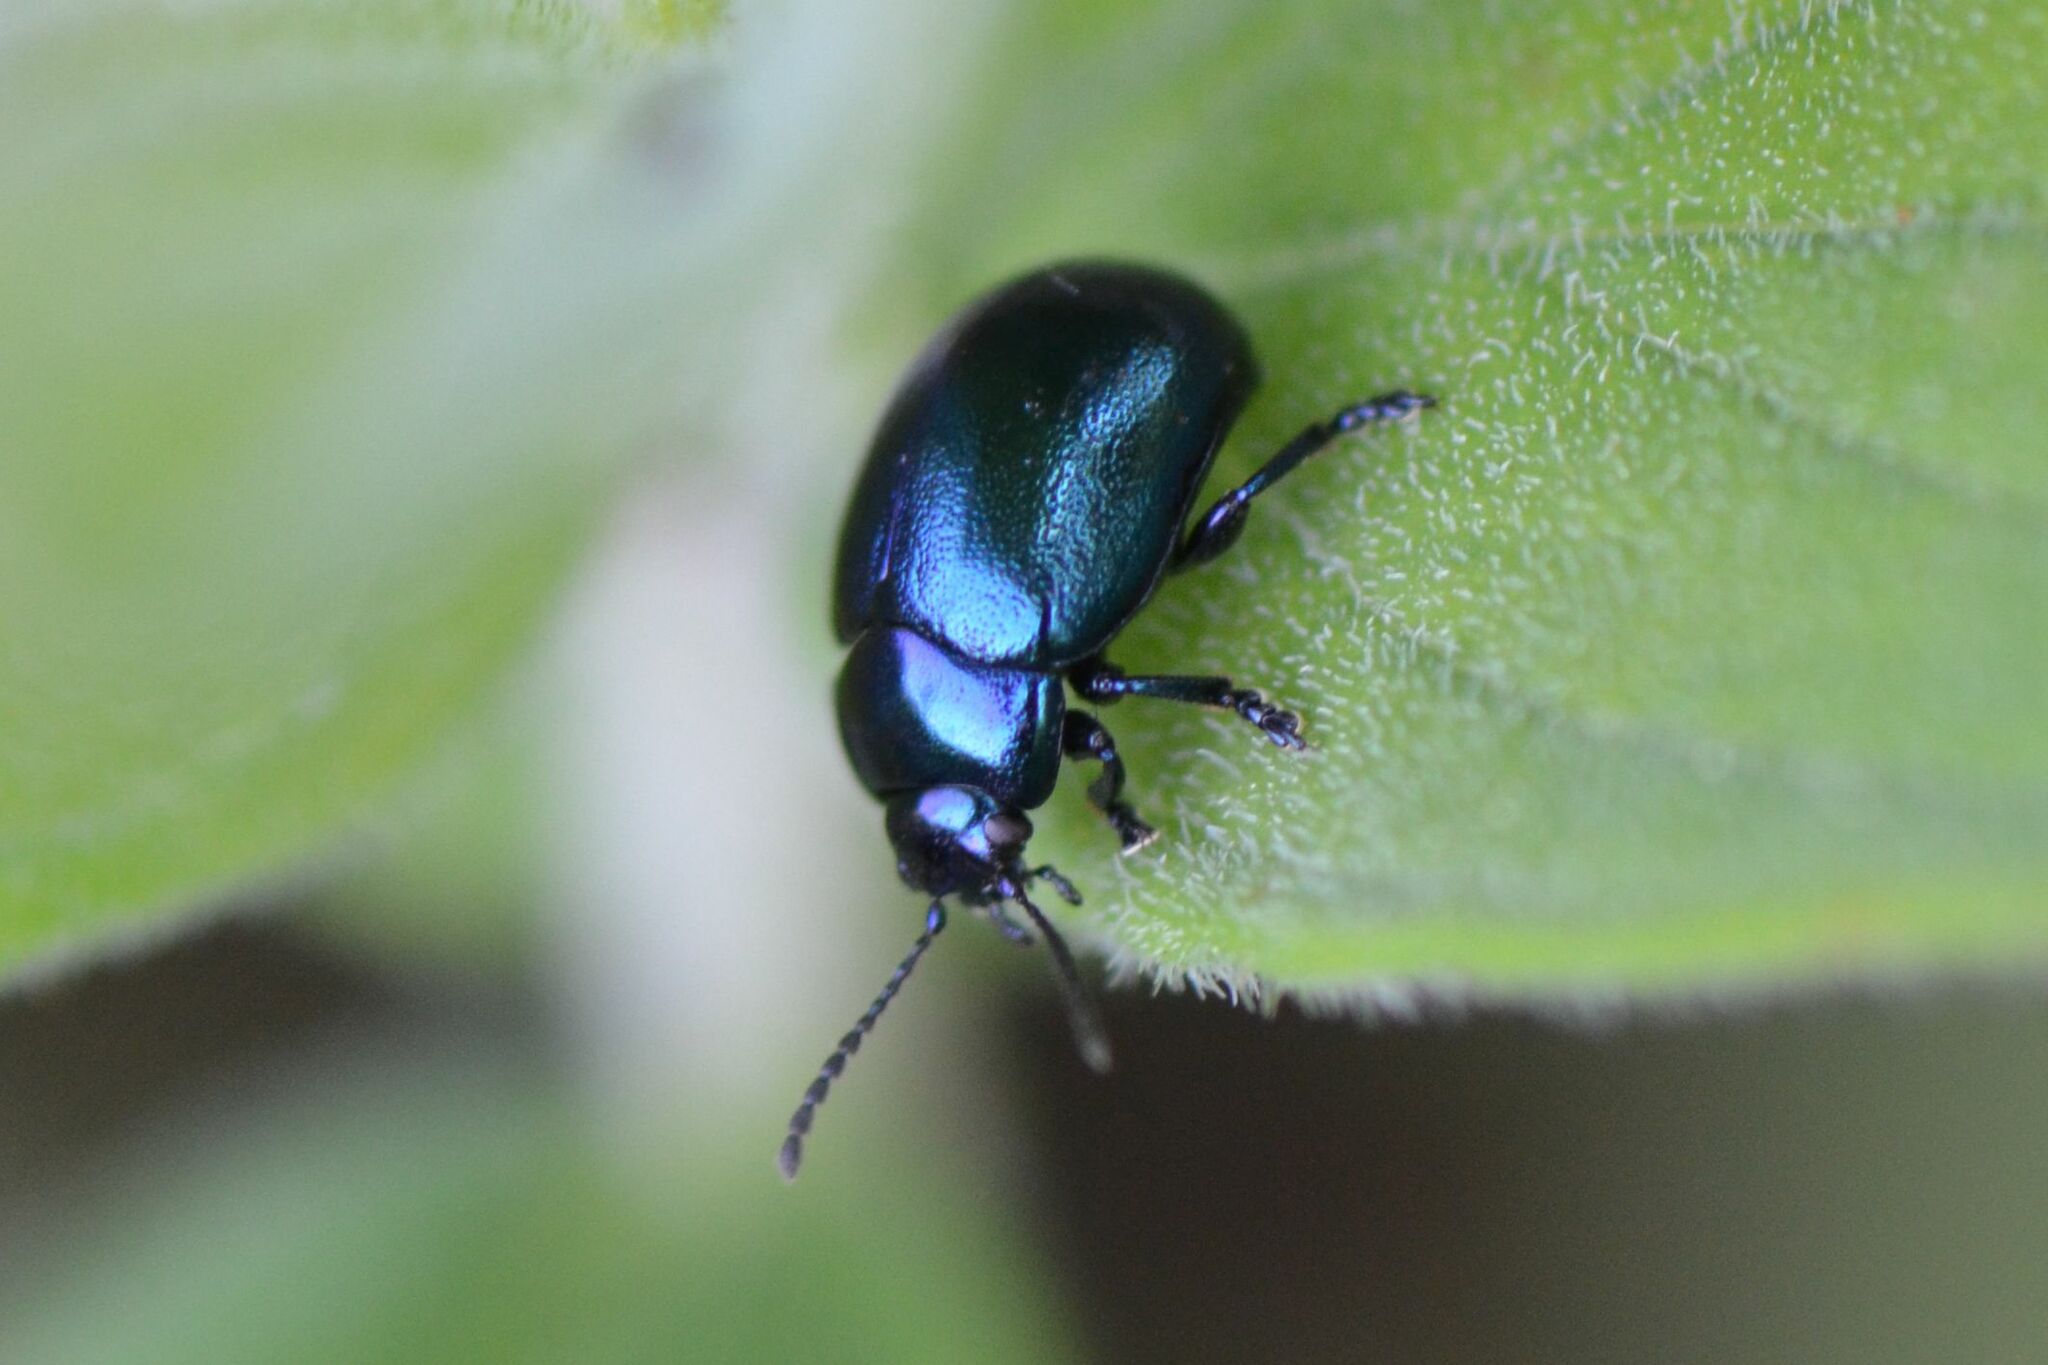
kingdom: Animalia
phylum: Arthropoda
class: Insecta
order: Coleoptera
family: Chrysomelidae
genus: Chrysolina
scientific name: Chrysolina varians
